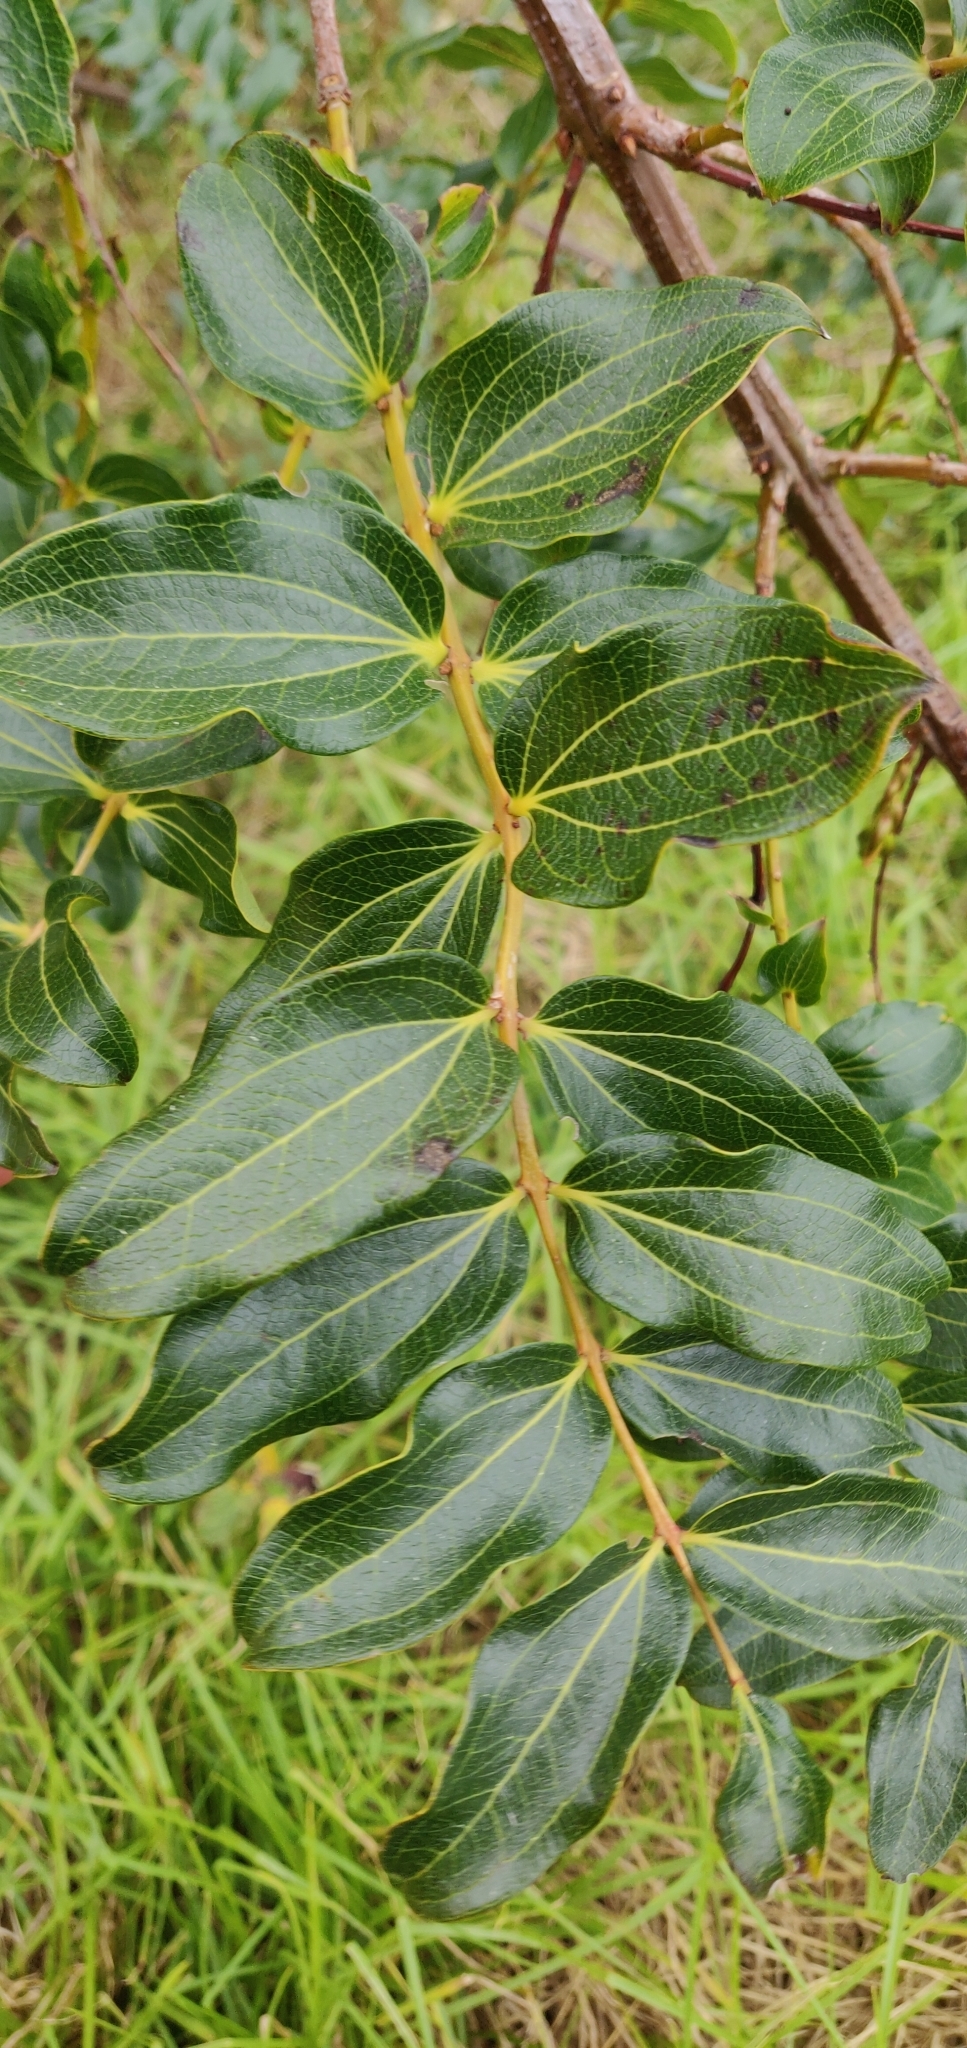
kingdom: Plantae
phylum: Tracheophyta
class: Magnoliopsida
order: Cucurbitales
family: Coriariaceae
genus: Coriaria
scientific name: Coriaria arborea
